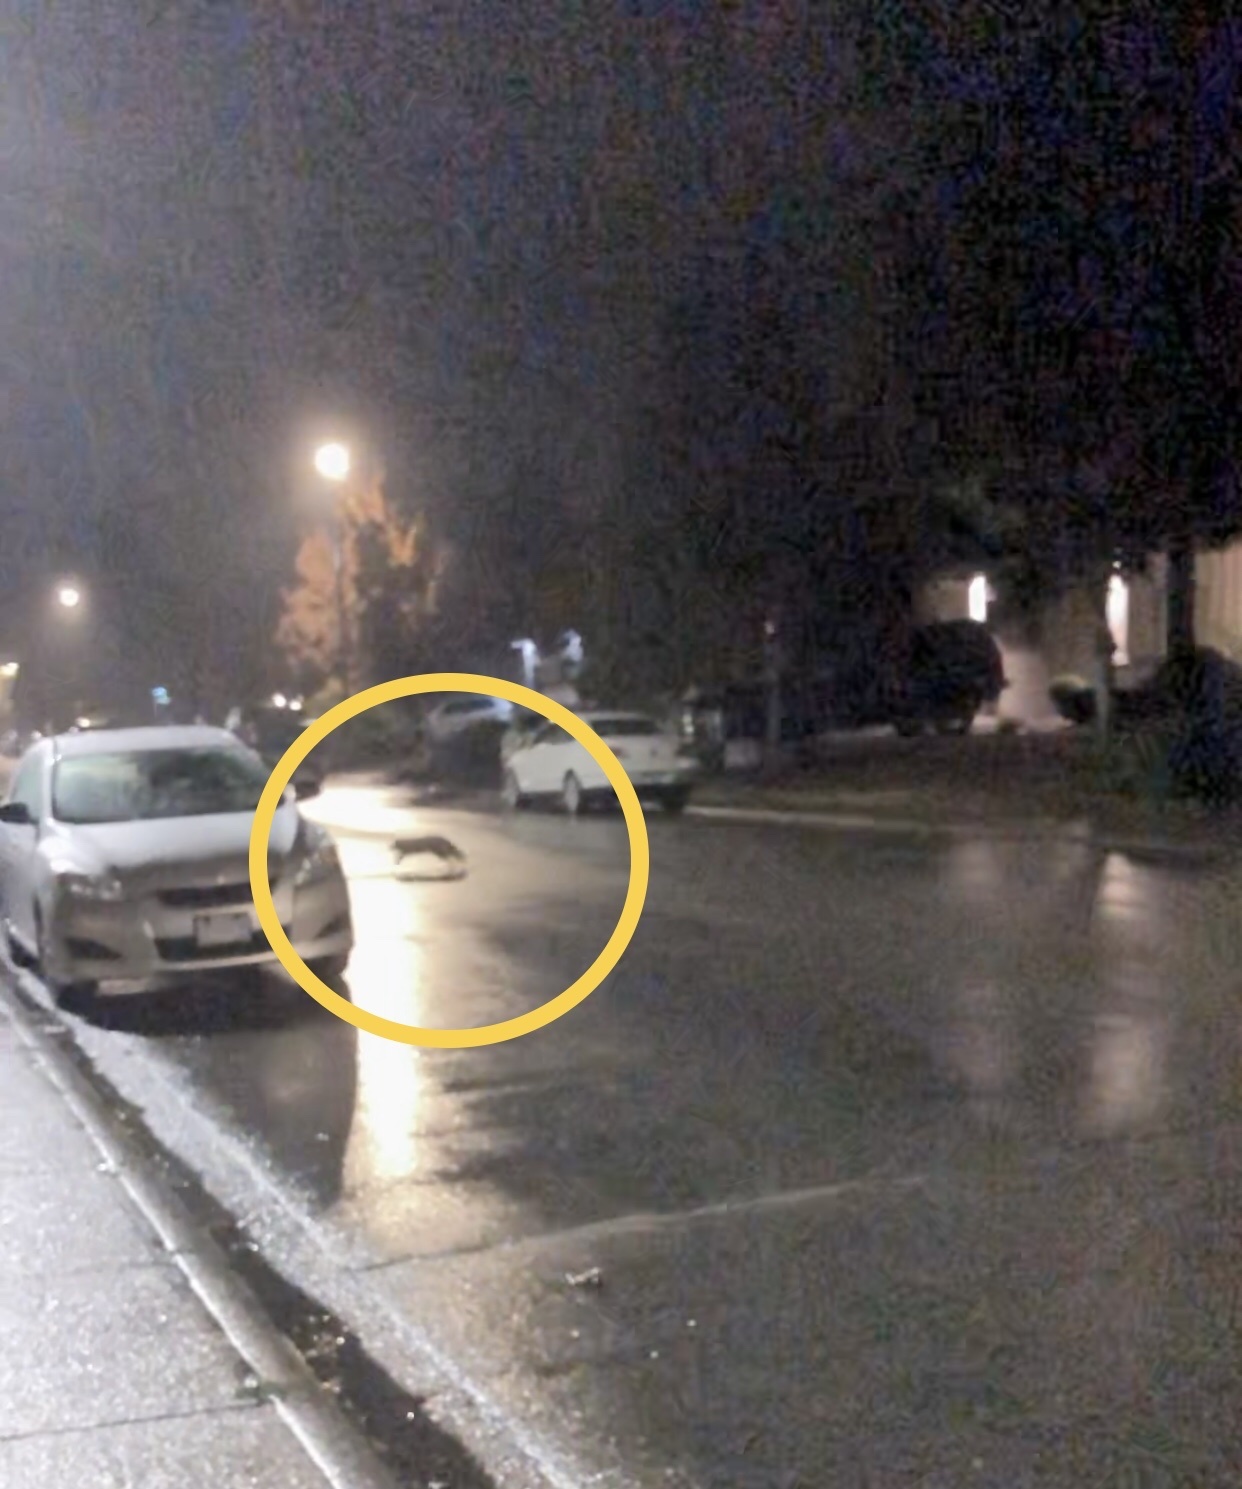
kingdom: Animalia
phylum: Chordata
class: Mammalia
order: Carnivora
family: Procyonidae
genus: Procyon
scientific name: Procyon lotor
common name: Raccoon
